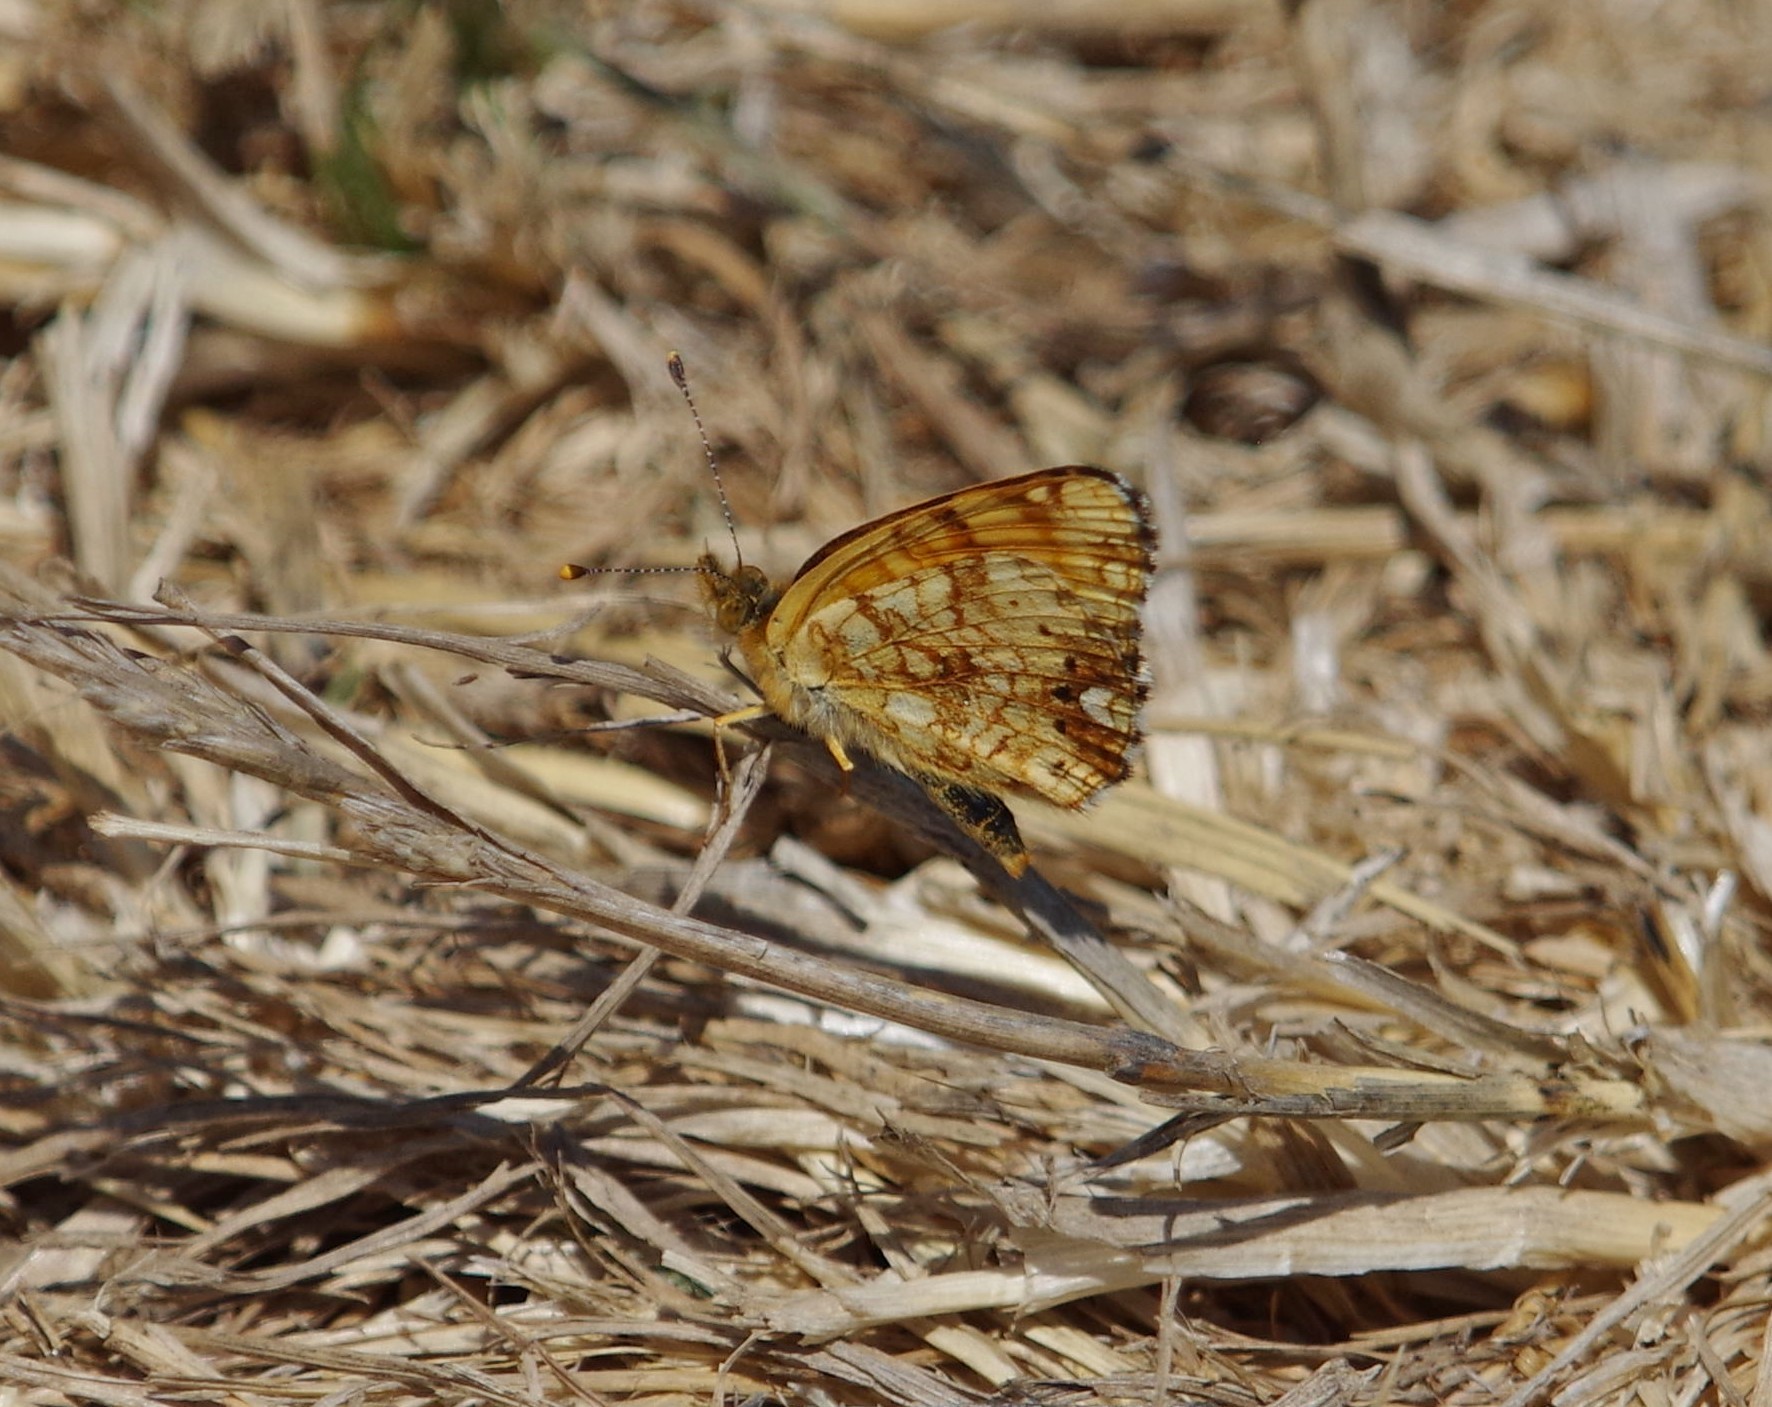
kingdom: Animalia
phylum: Arthropoda
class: Insecta
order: Lepidoptera
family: Nymphalidae
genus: Eresia
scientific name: Eresia aveyrona
